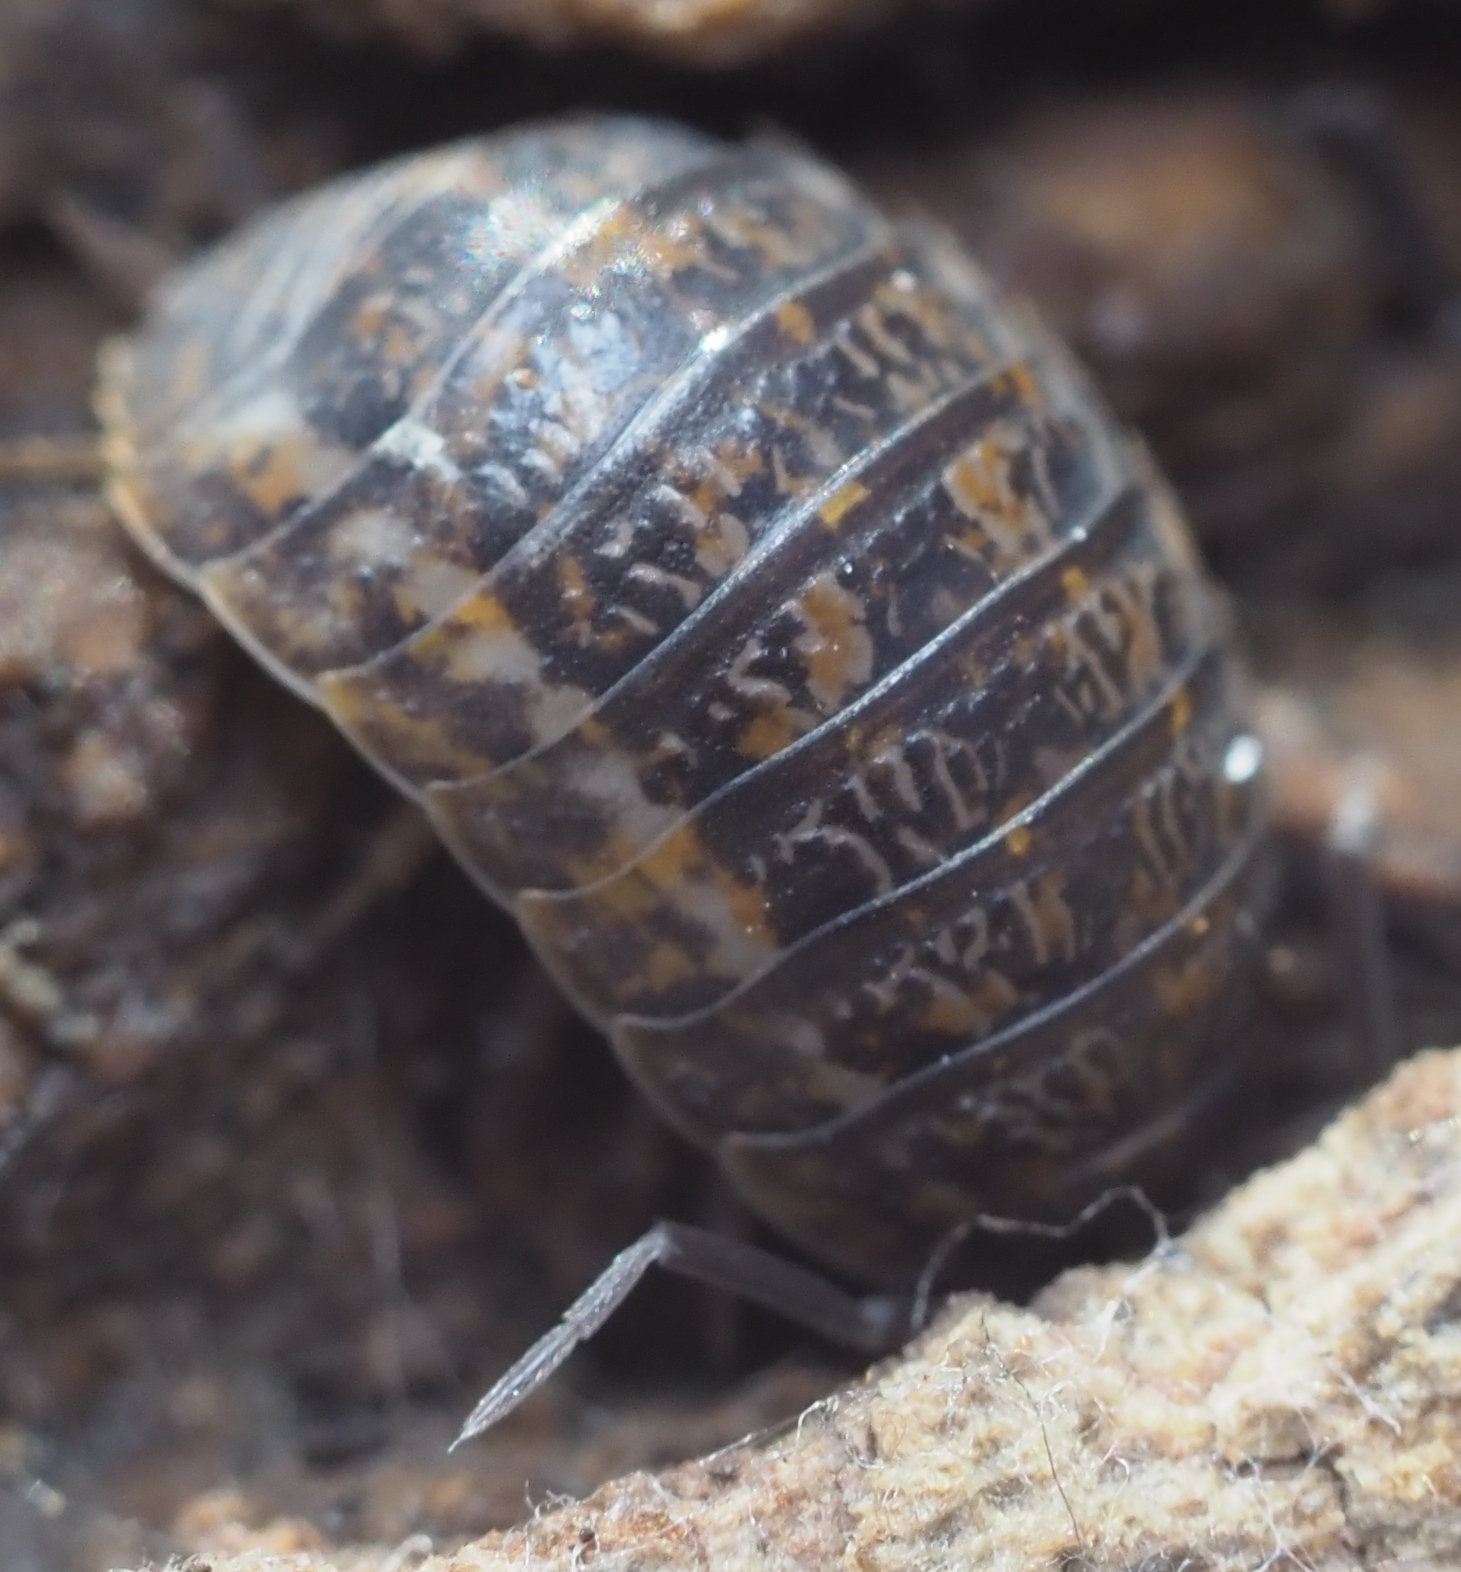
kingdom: Animalia
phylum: Arthropoda
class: Malacostraca
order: Isopoda
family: Trachelipodidae
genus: Trachelipus
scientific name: Trachelipus rathkii
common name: Isopod
